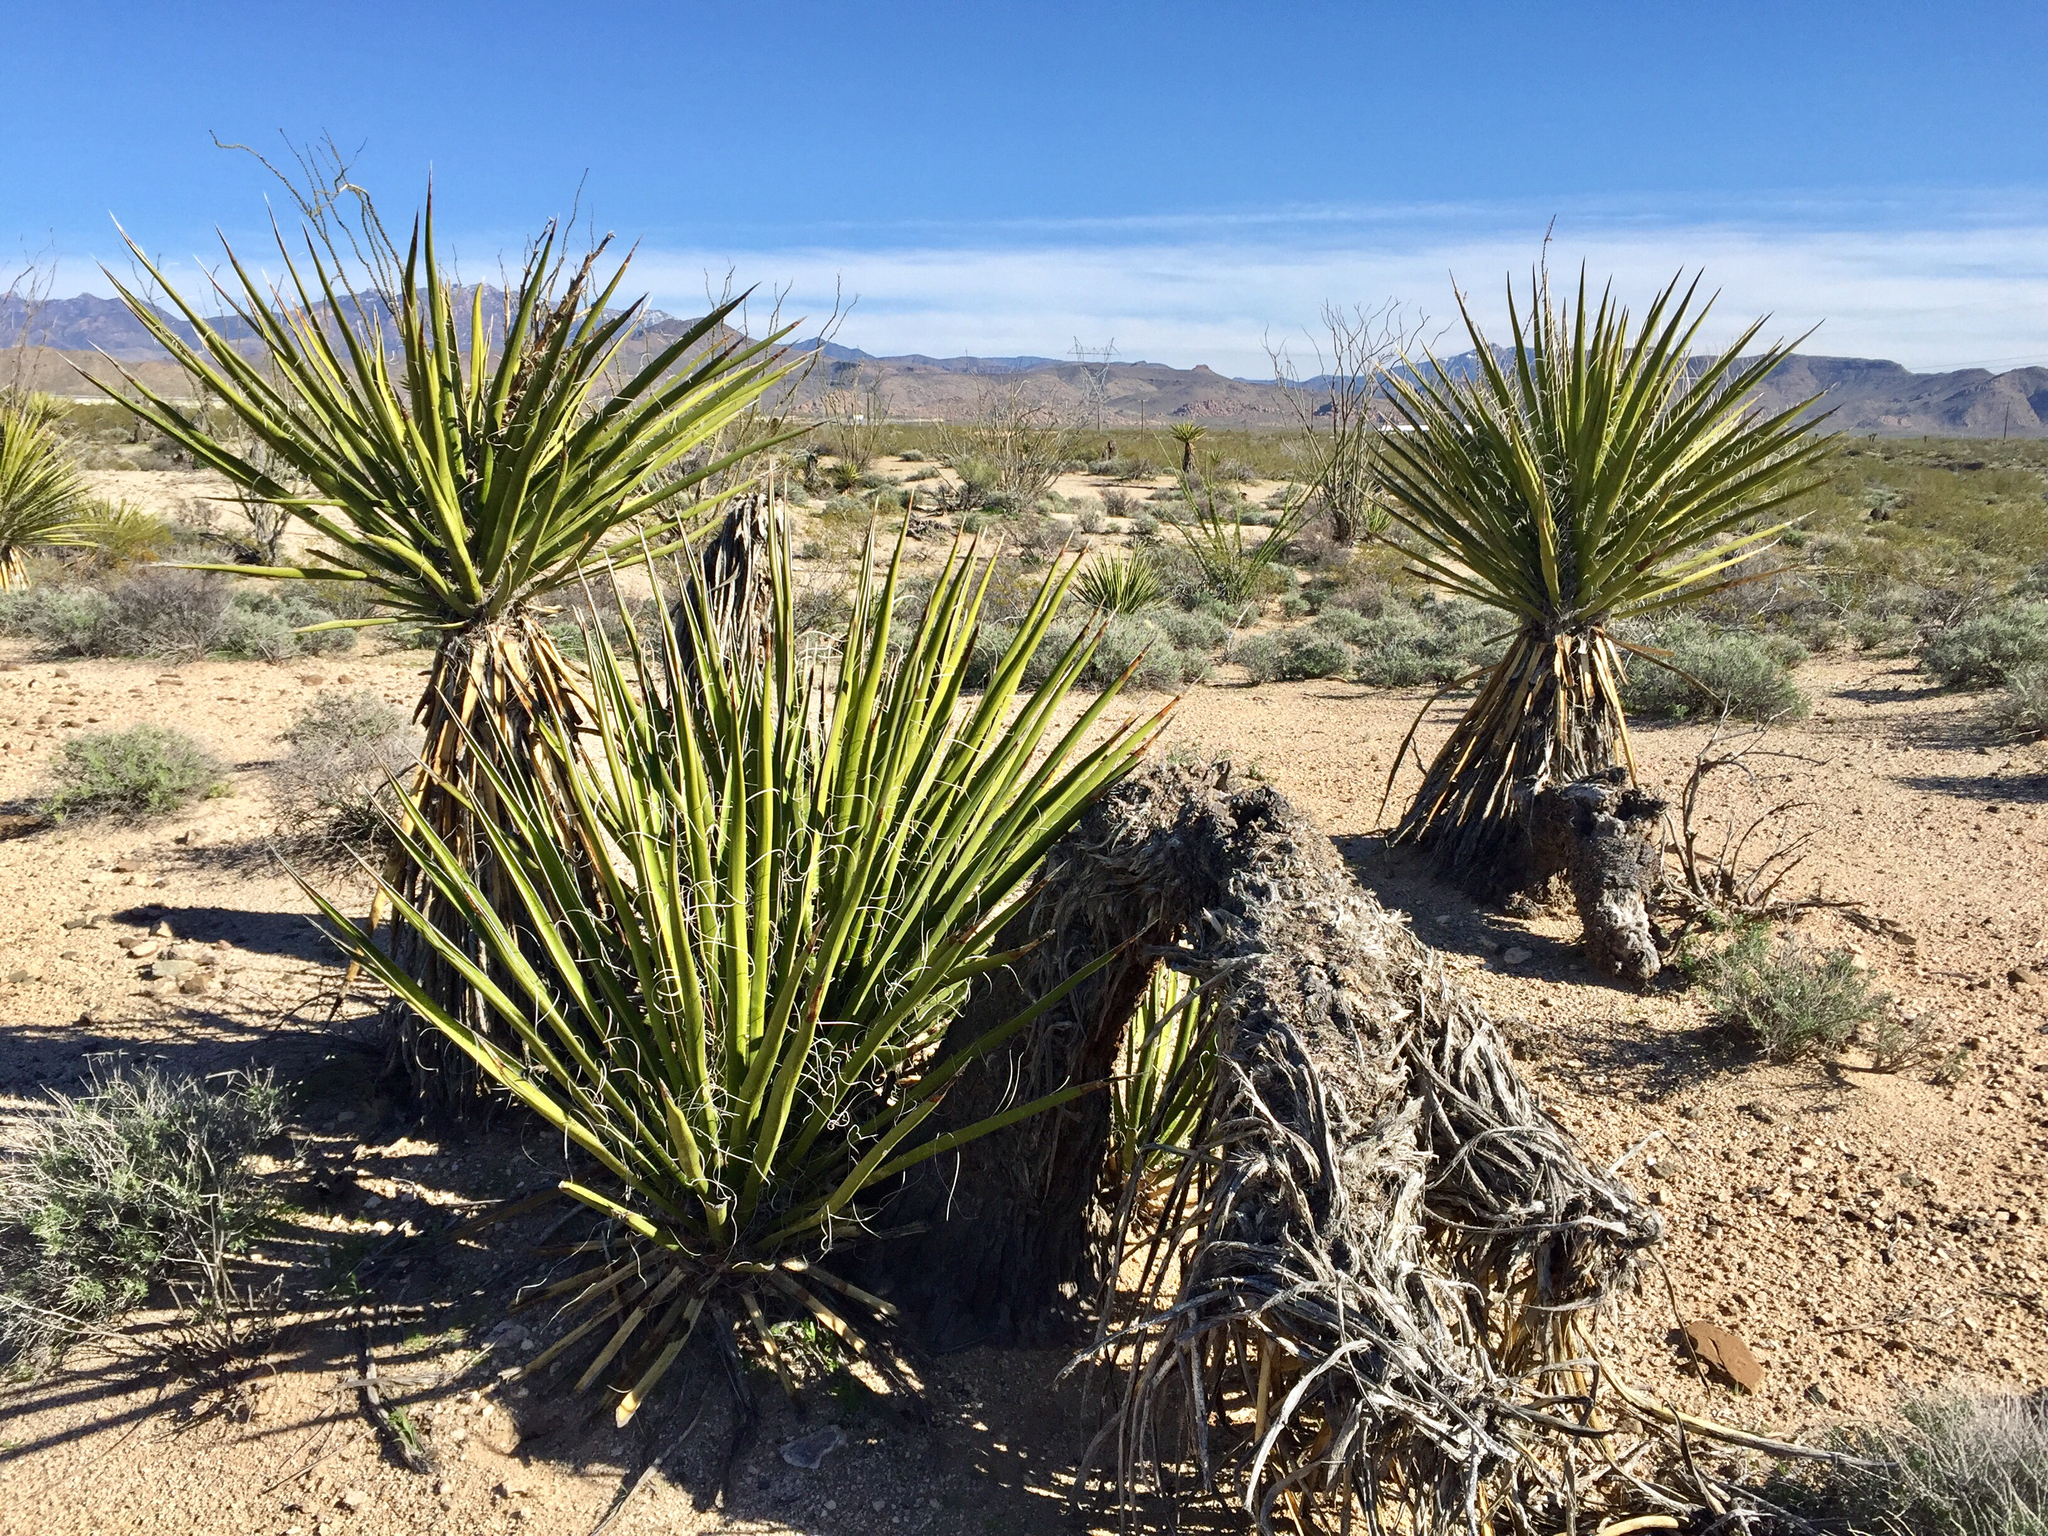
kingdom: Plantae
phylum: Tracheophyta
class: Liliopsida
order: Asparagales
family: Asparagaceae
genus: Yucca
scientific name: Yucca schidigera
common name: Mojave yucca
